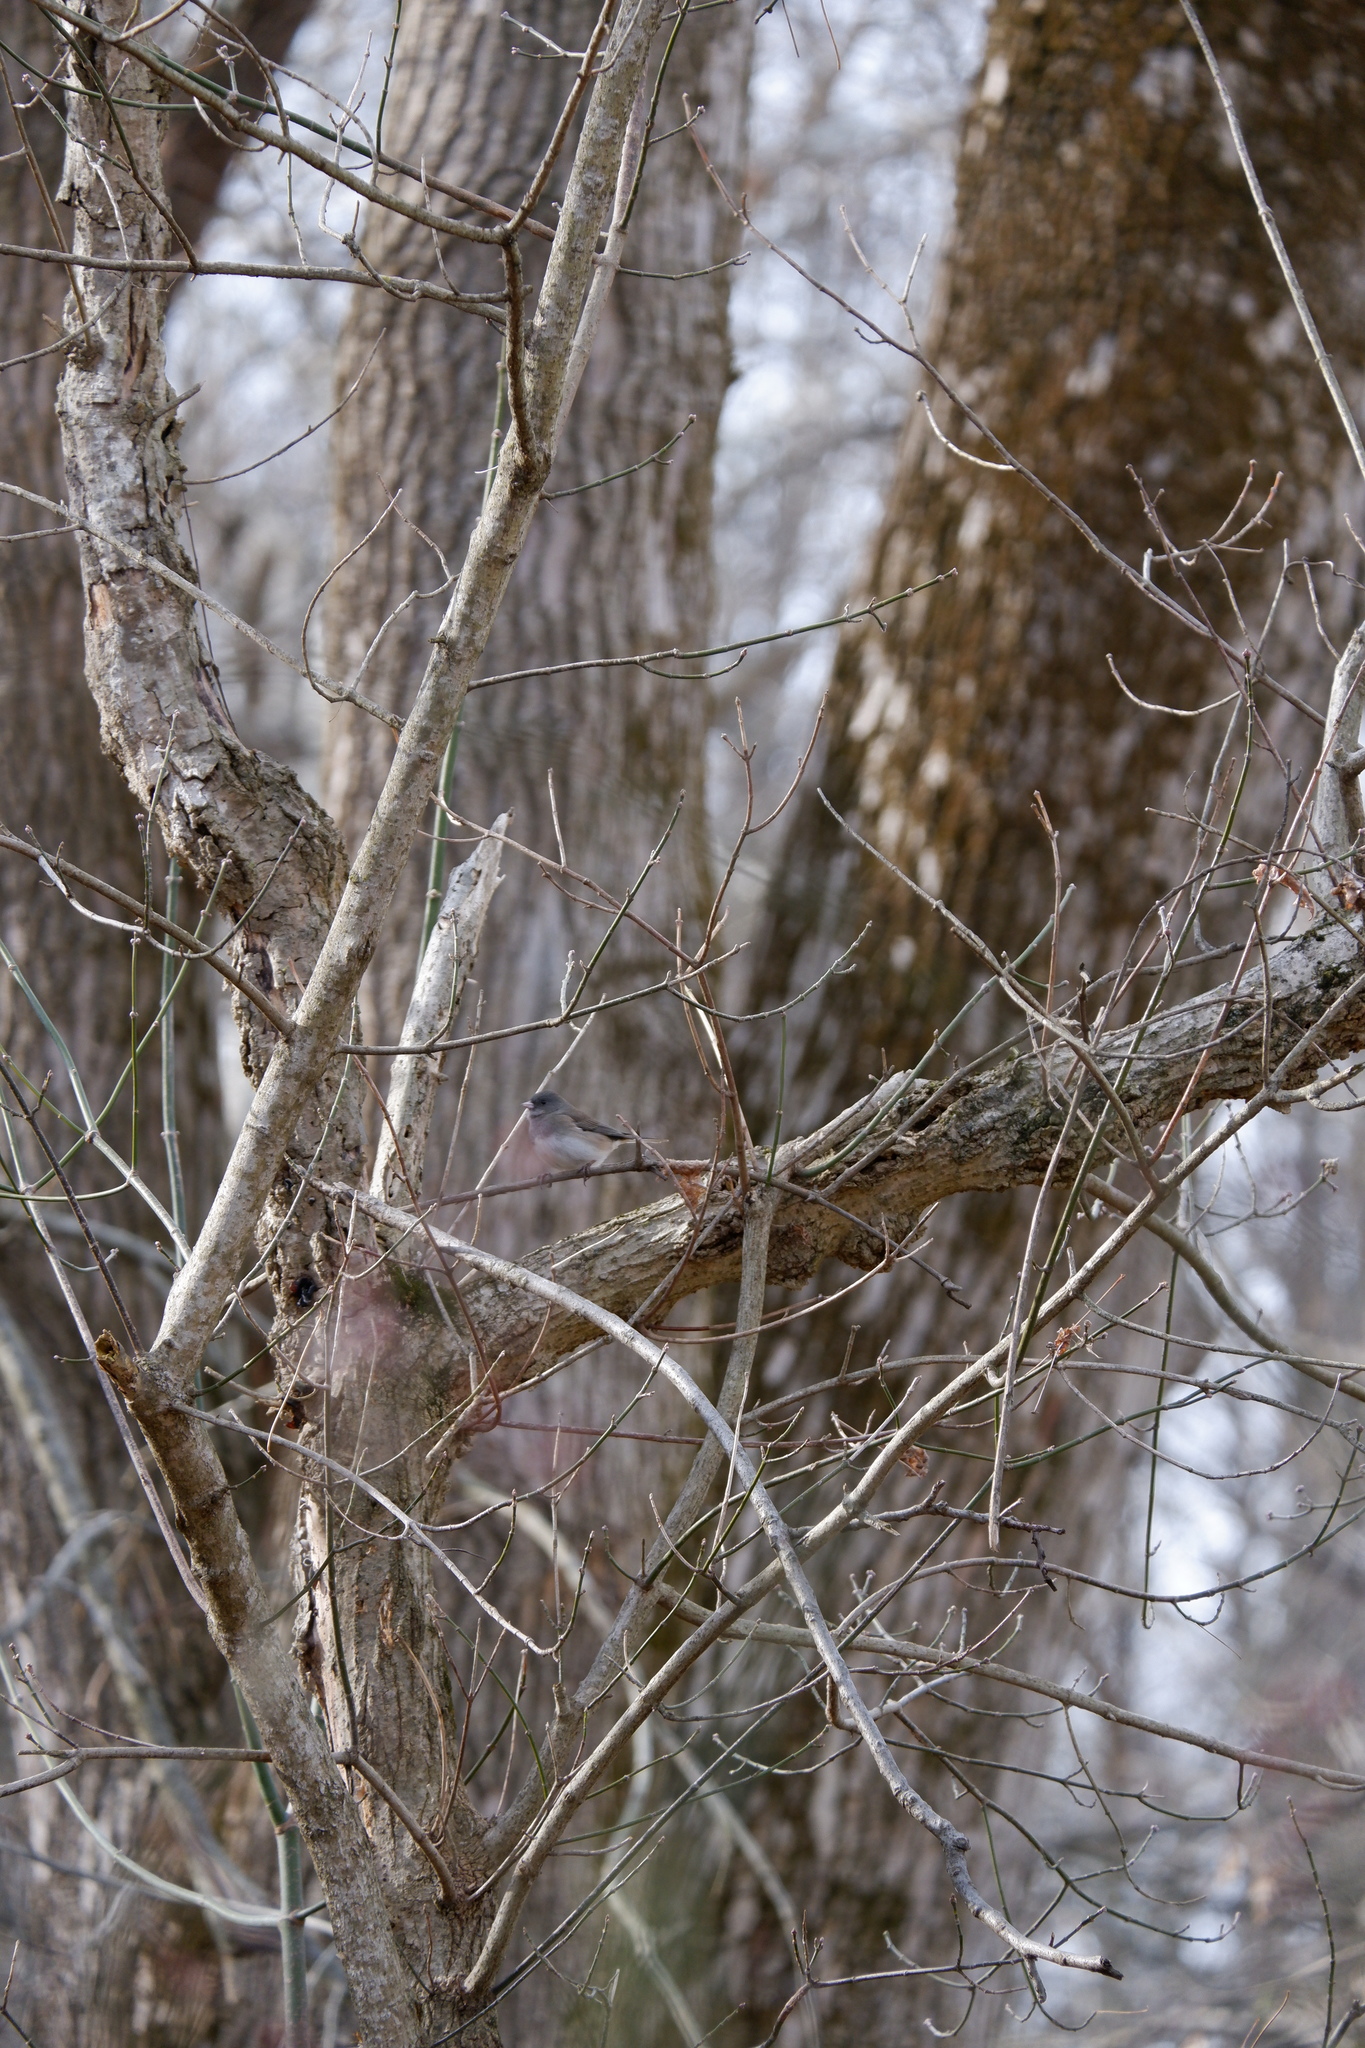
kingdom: Animalia
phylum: Chordata
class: Aves
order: Passeriformes
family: Passerellidae
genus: Junco
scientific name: Junco hyemalis
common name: Dark-eyed junco
